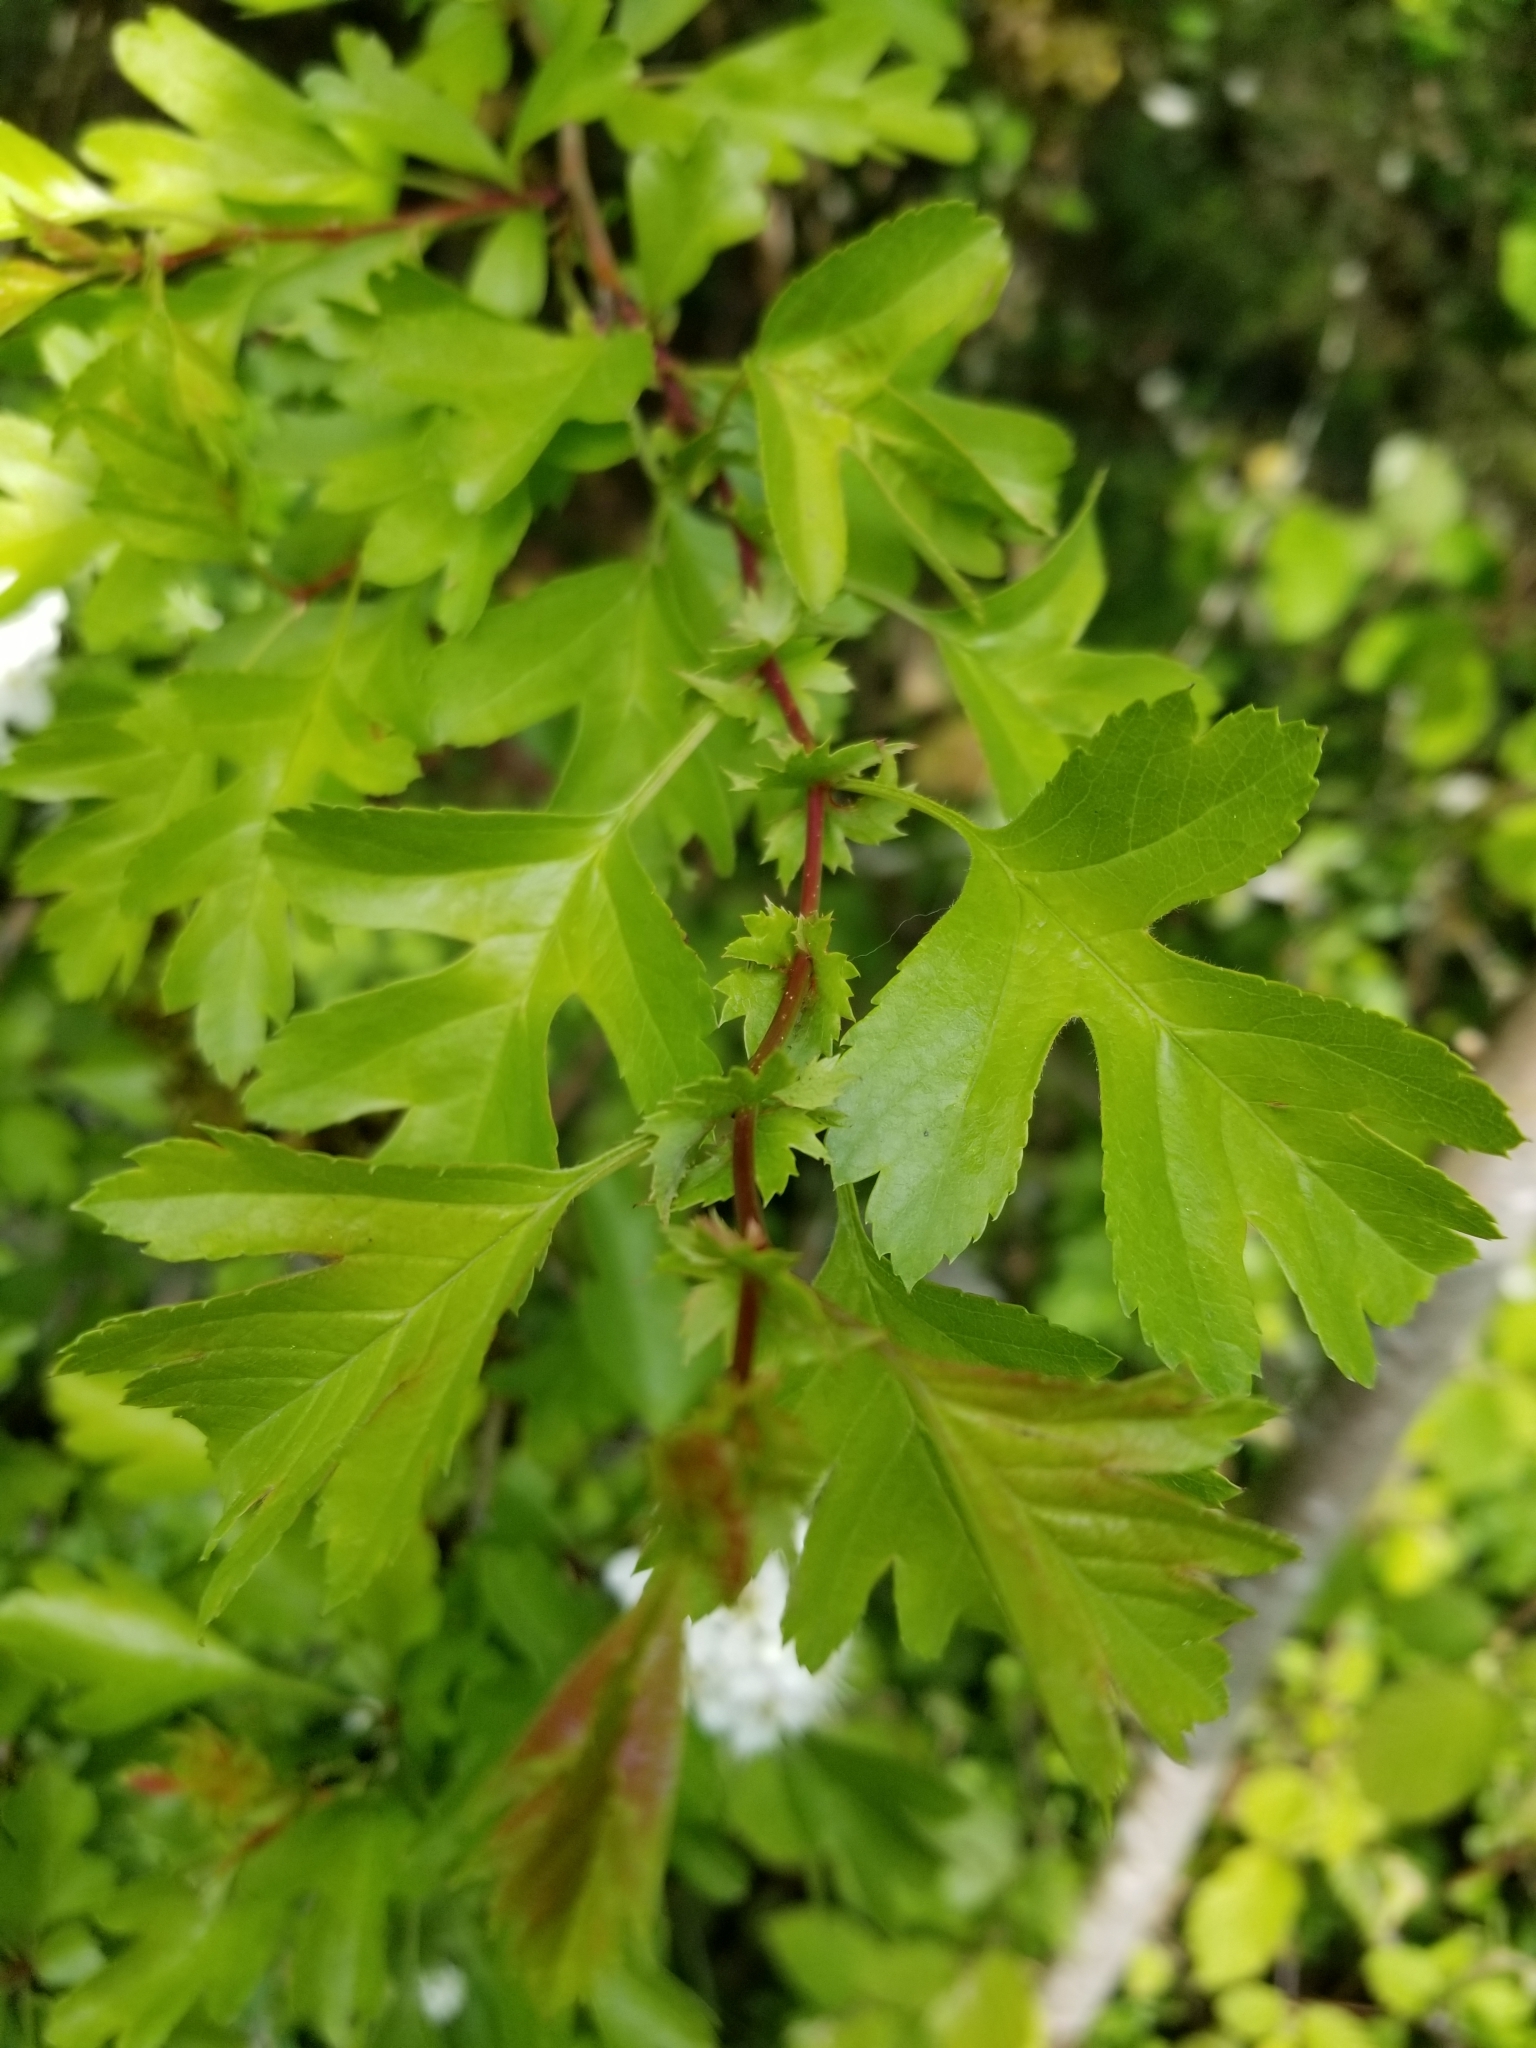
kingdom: Plantae
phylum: Tracheophyta
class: Magnoliopsida
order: Rosales
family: Rosaceae
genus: Crataegus
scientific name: Crataegus monogyna
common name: Hawthorn
